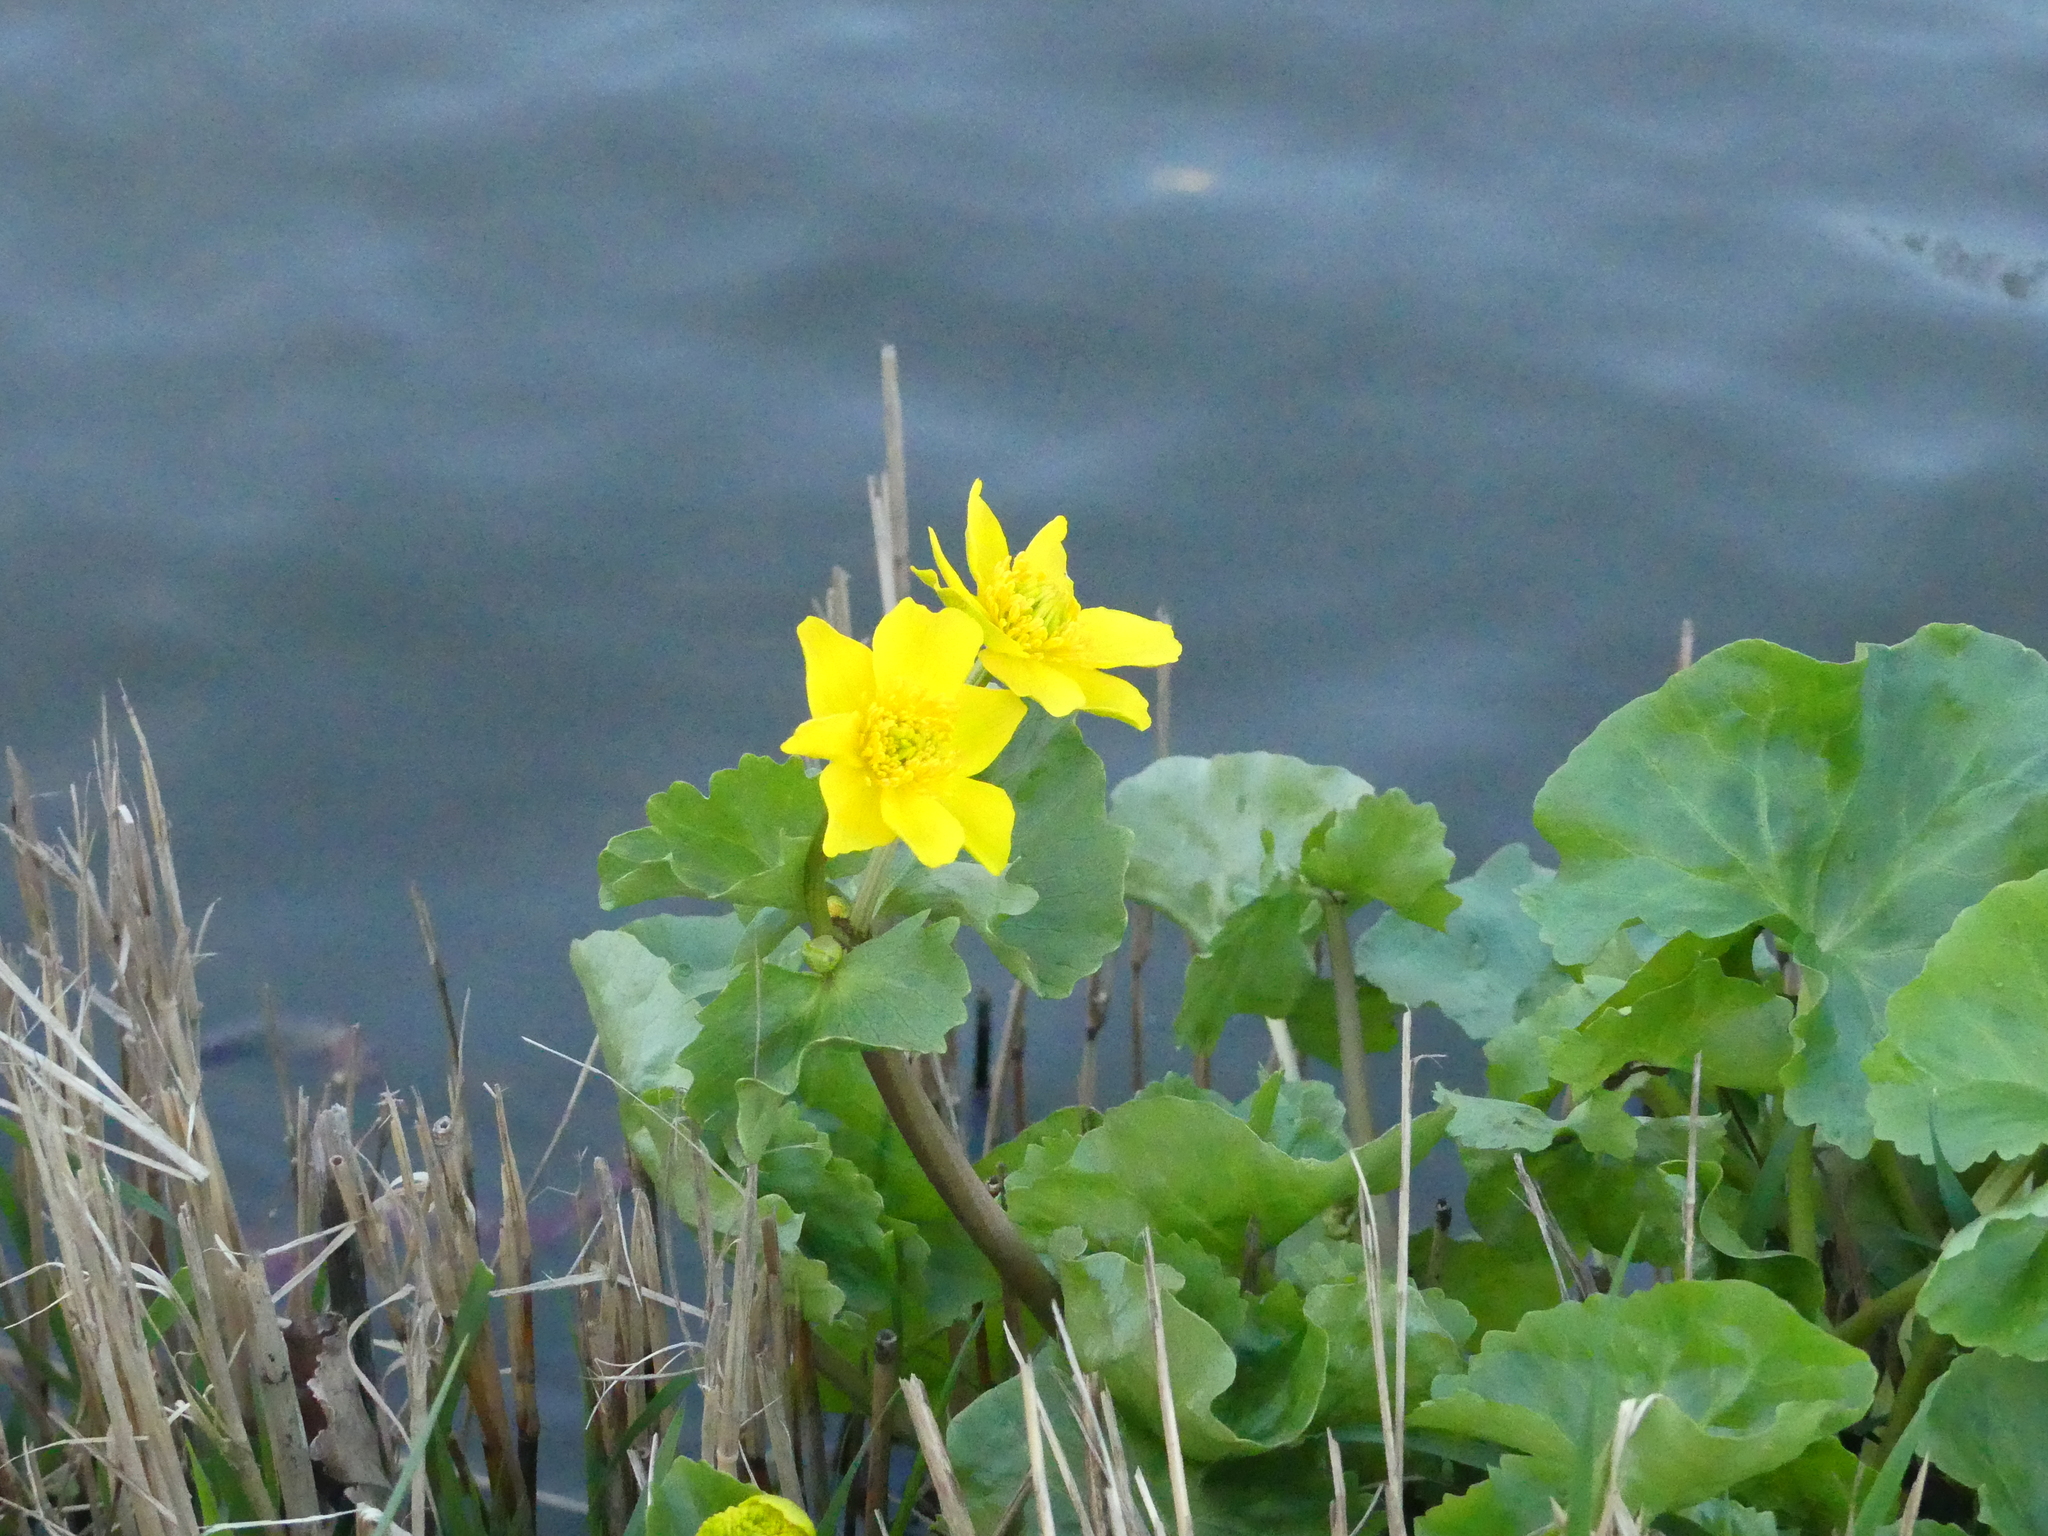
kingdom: Plantae
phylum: Tracheophyta
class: Magnoliopsida
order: Ranunculales
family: Ranunculaceae
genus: Caltha
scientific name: Caltha palustris
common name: Marsh marigold
